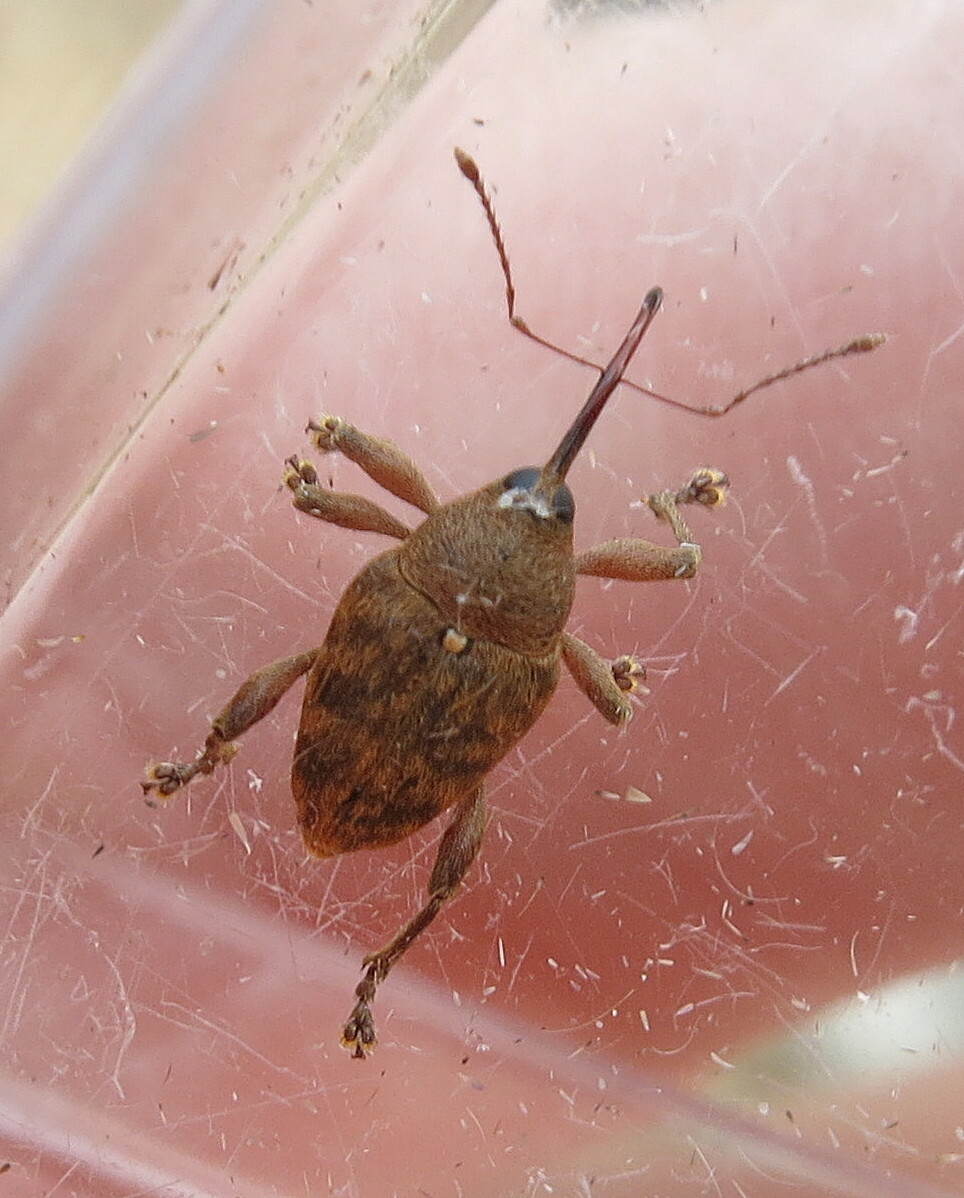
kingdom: Animalia
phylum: Arthropoda
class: Insecta
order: Coleoptera
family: Curculionidae
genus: Curculio
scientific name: Curculio glandium
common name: Acorn weevil
